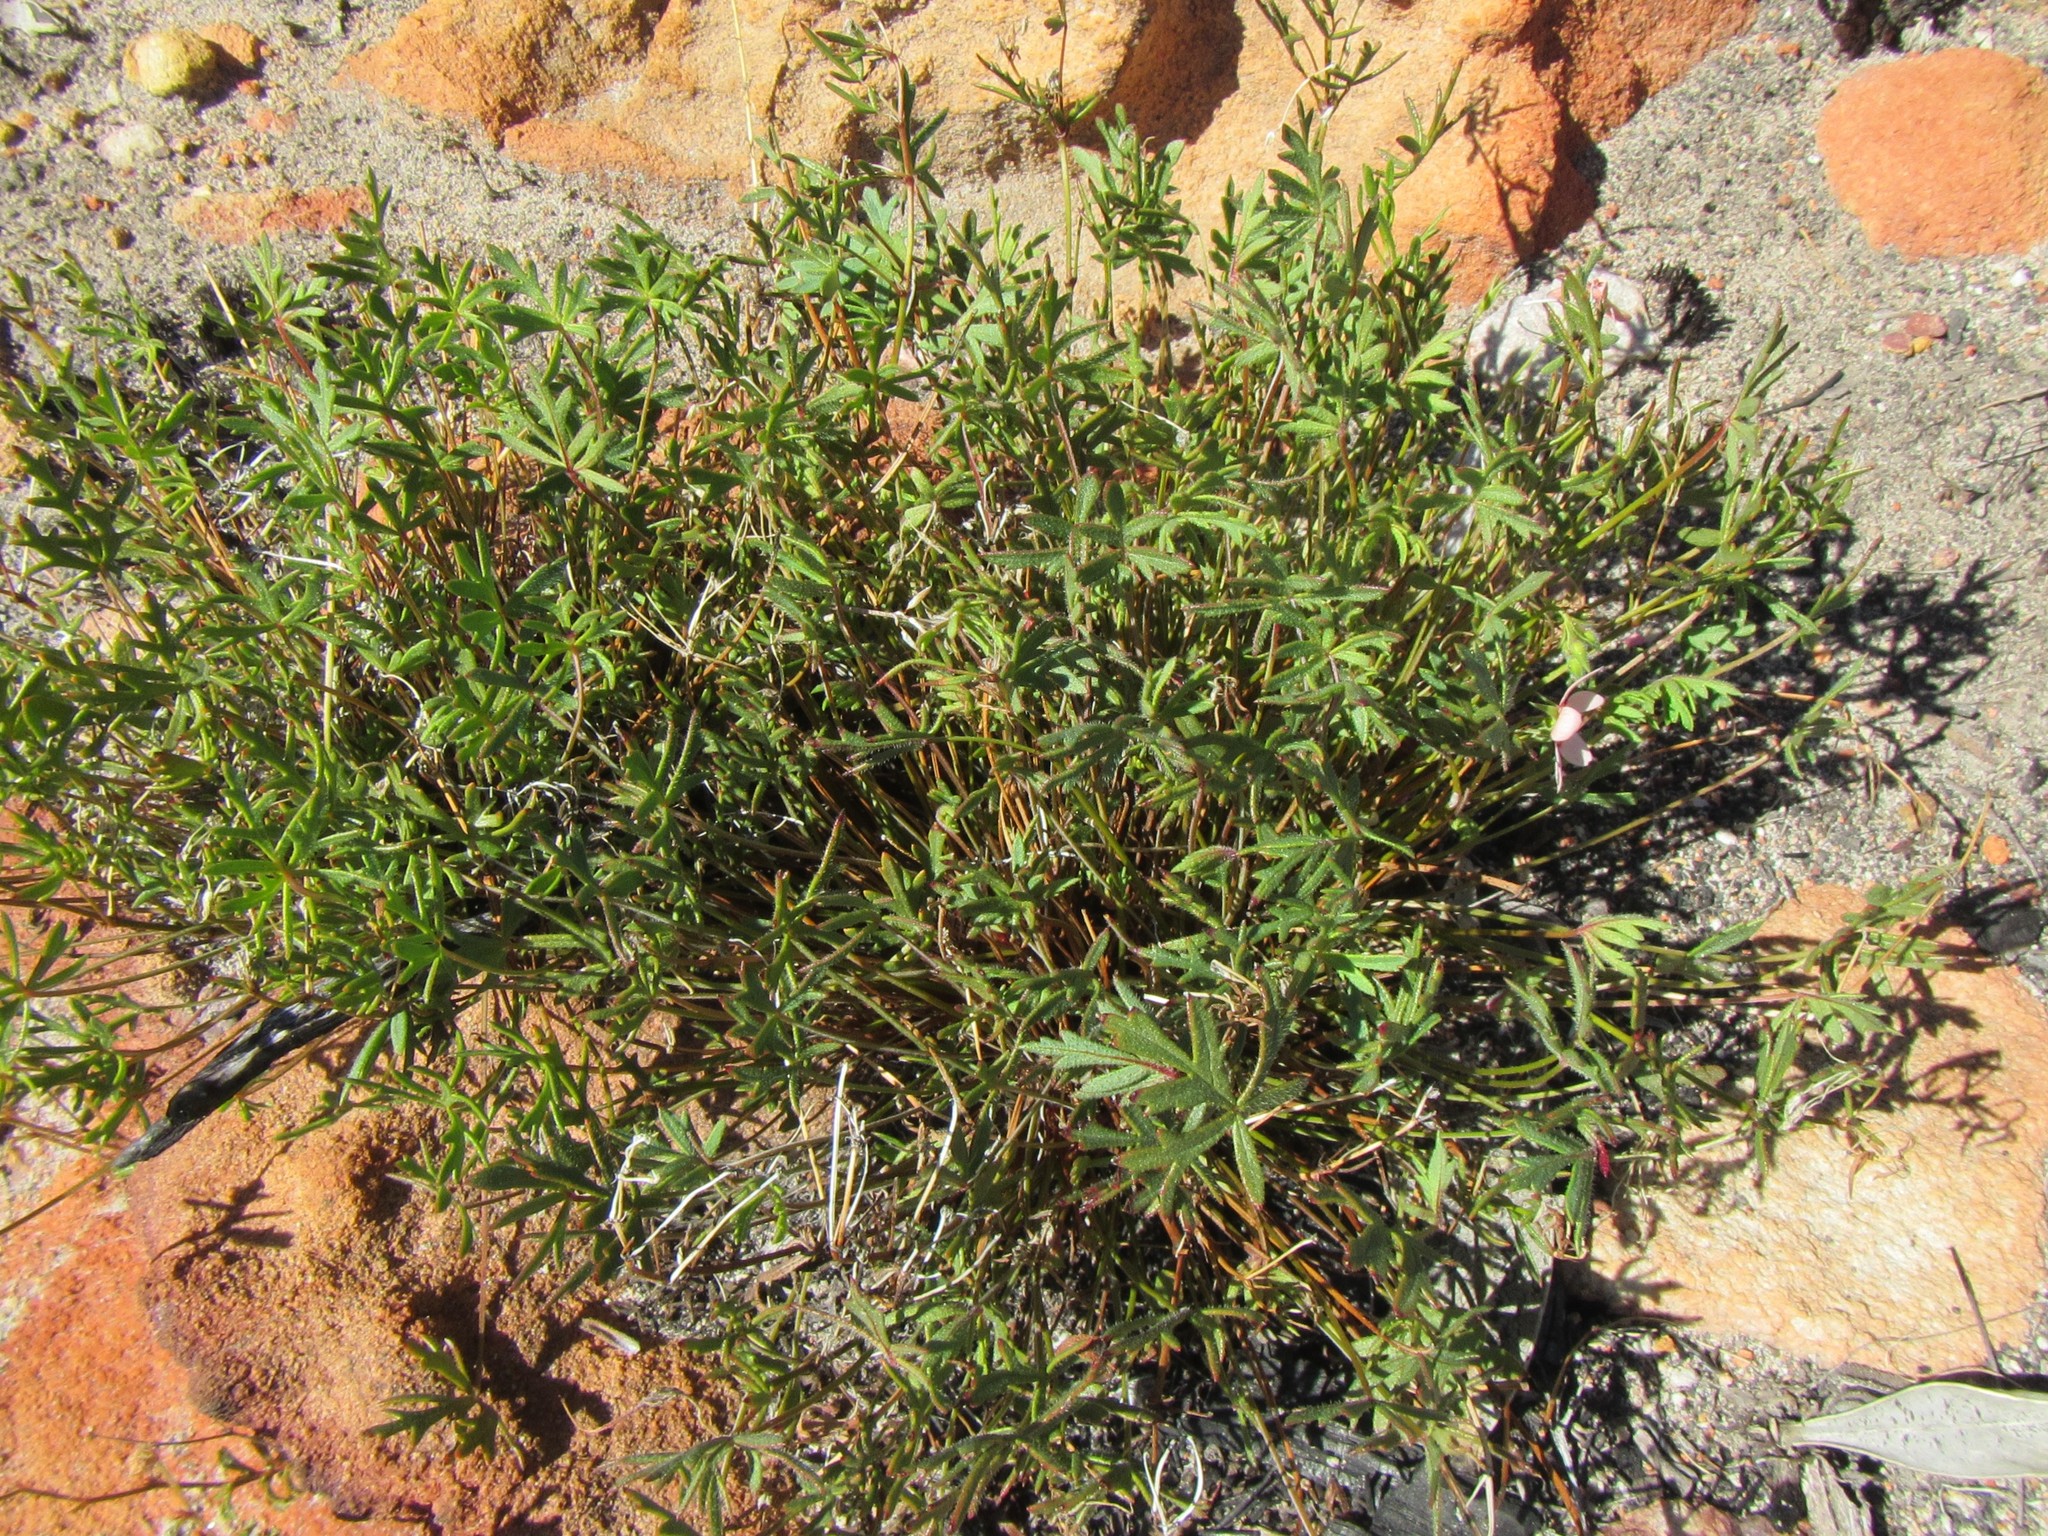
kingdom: Plantae
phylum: Tracheophyta
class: Magnoliopsida
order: Geraniales
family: Geraniaceae
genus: Pelargonium
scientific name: Pelargonium incarnatum
